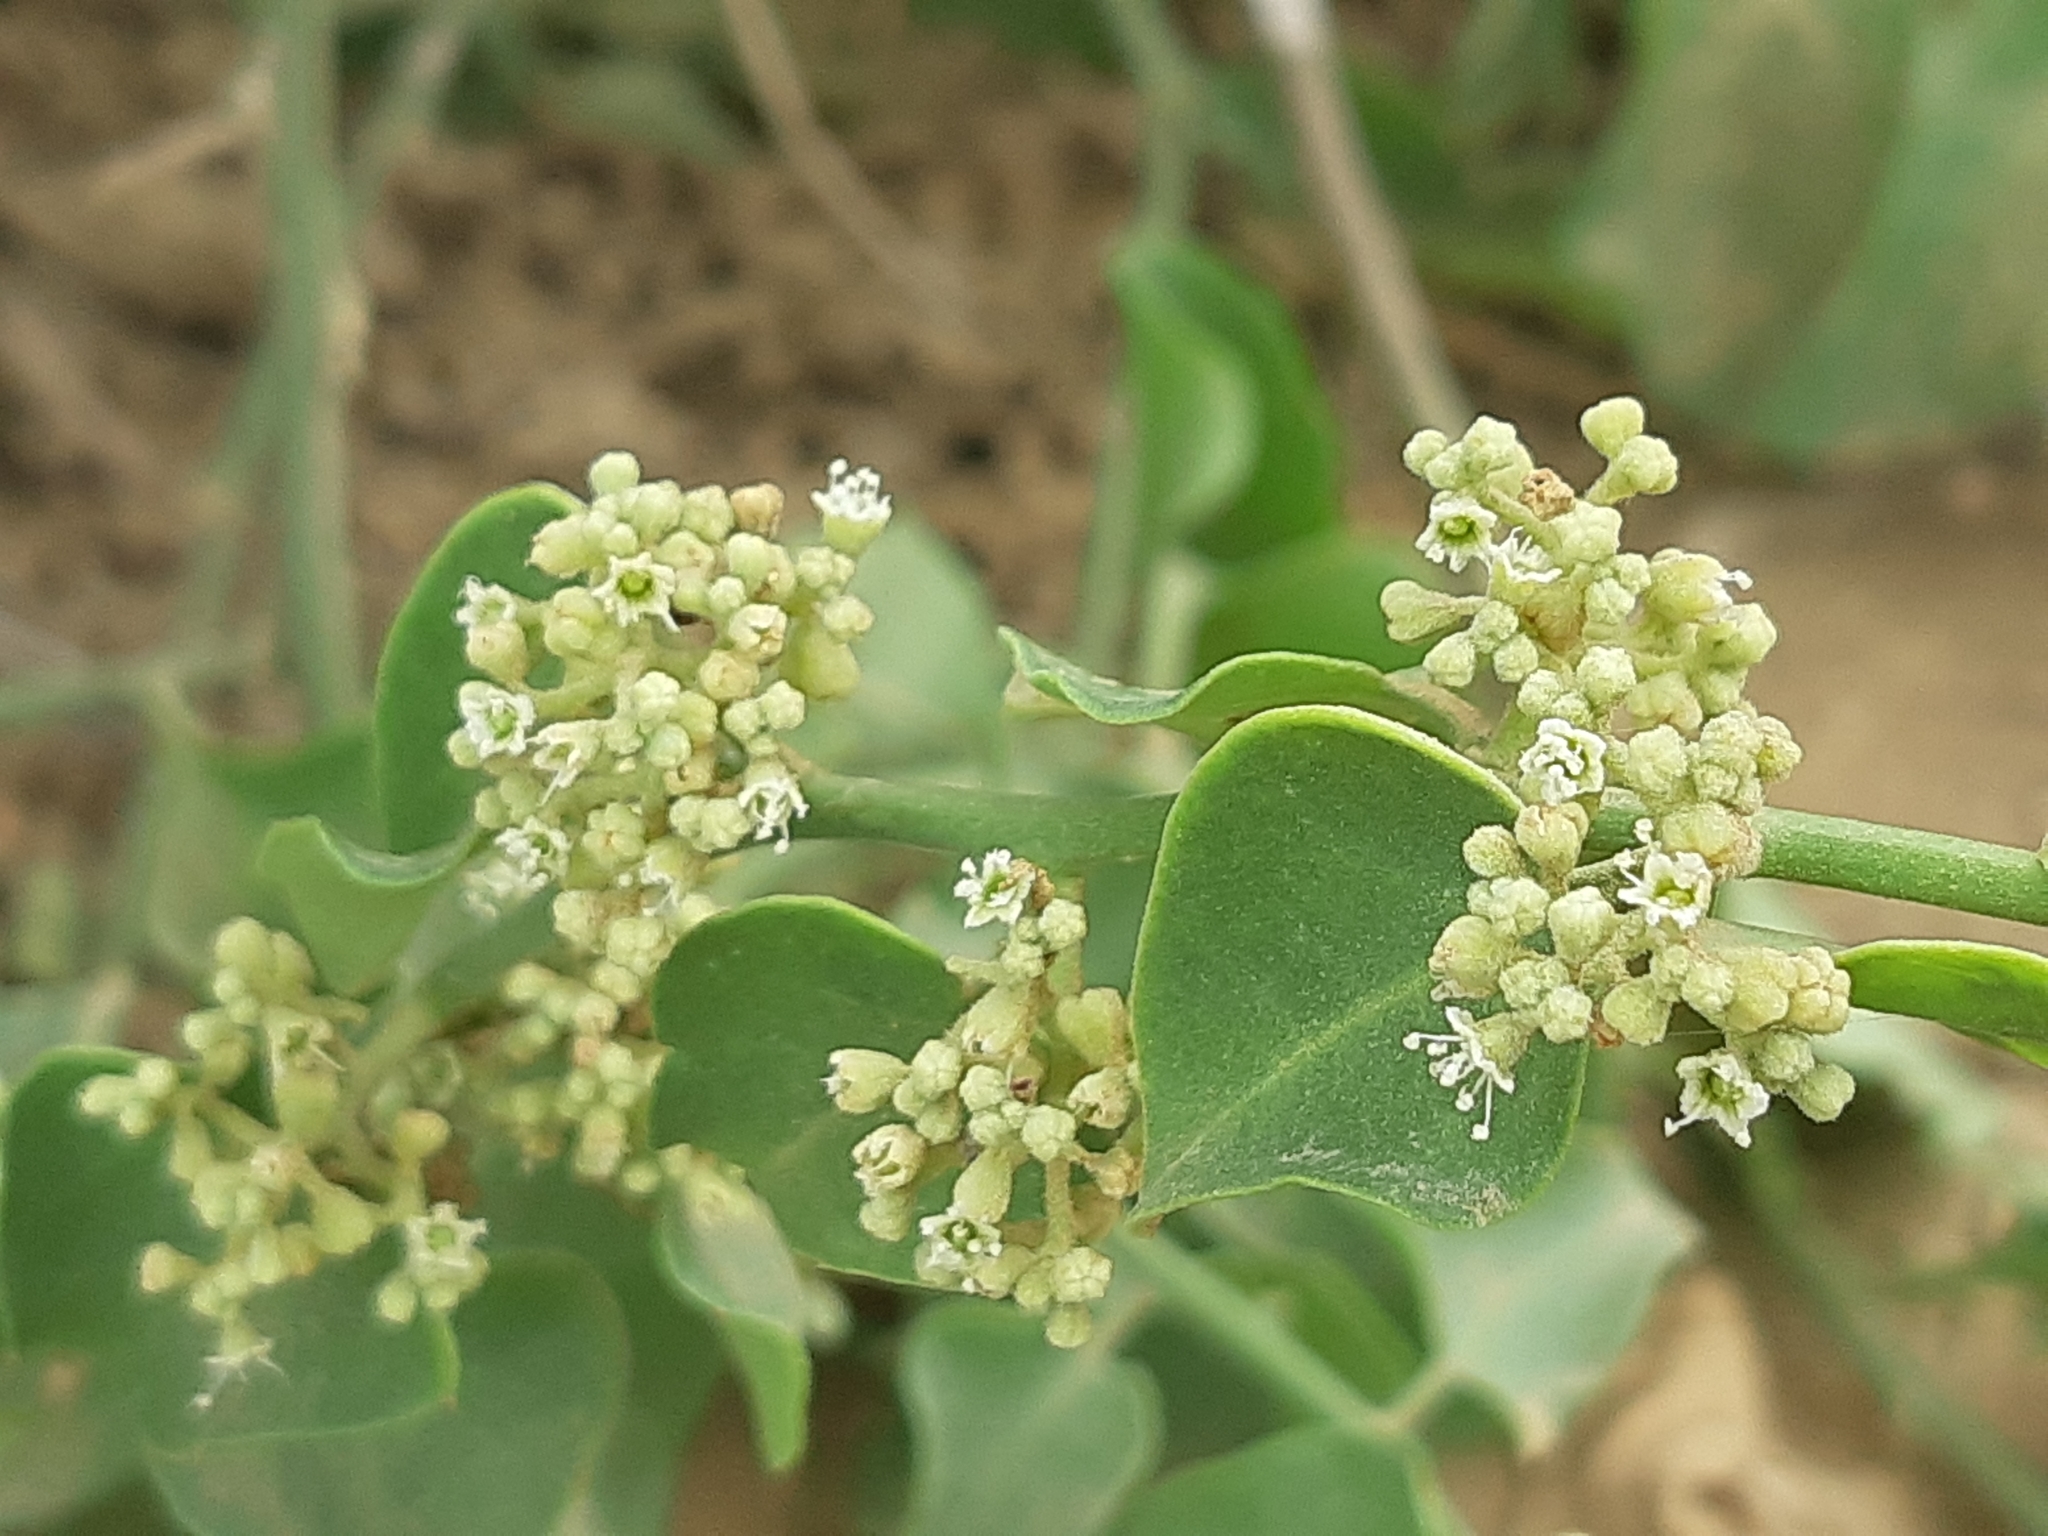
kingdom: Plantae
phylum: Tracheophyta
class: Magnoliopsida
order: Caryophyllales
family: Nyctaginaceae
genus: Cryptocarpus
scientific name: Cryptocarpus pyriformis
